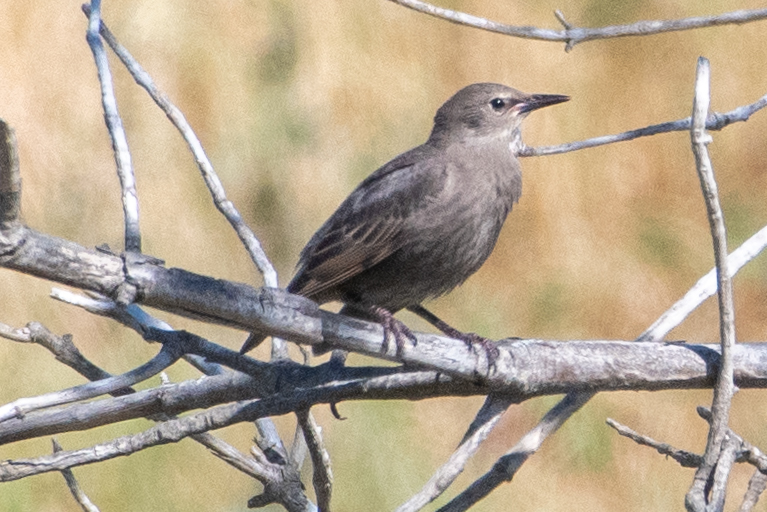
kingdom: Animalia
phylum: Chordata
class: Aves
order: Passeriformes
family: Sturnidae
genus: Sturnus
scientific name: Sturnus vulgaris
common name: Common starling
